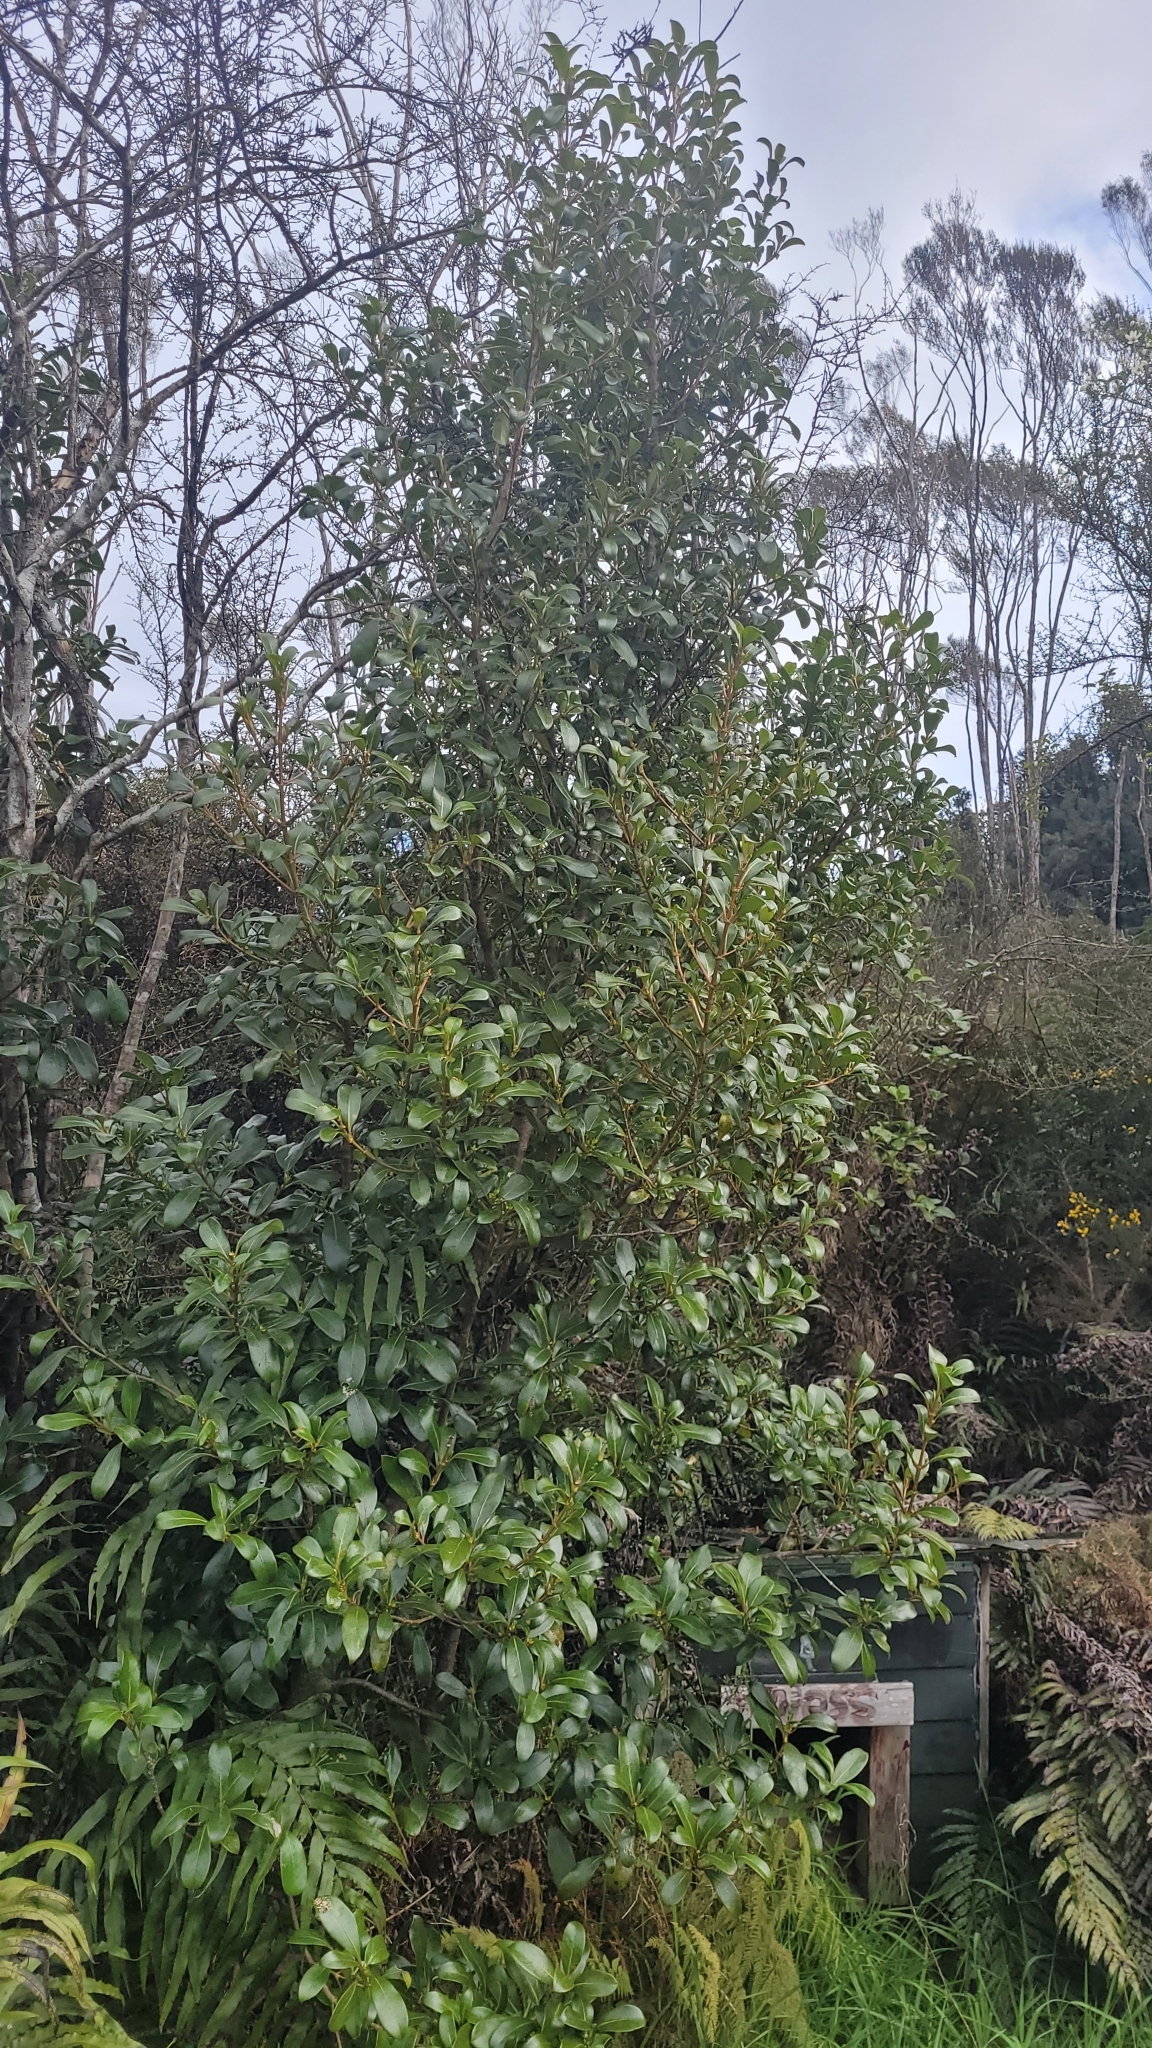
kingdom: Plantae
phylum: Tracheophyta
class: Magnoliopsida
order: Gentianales
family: Rubiaceae
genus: Coprosma
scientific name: Coprosma lucida
